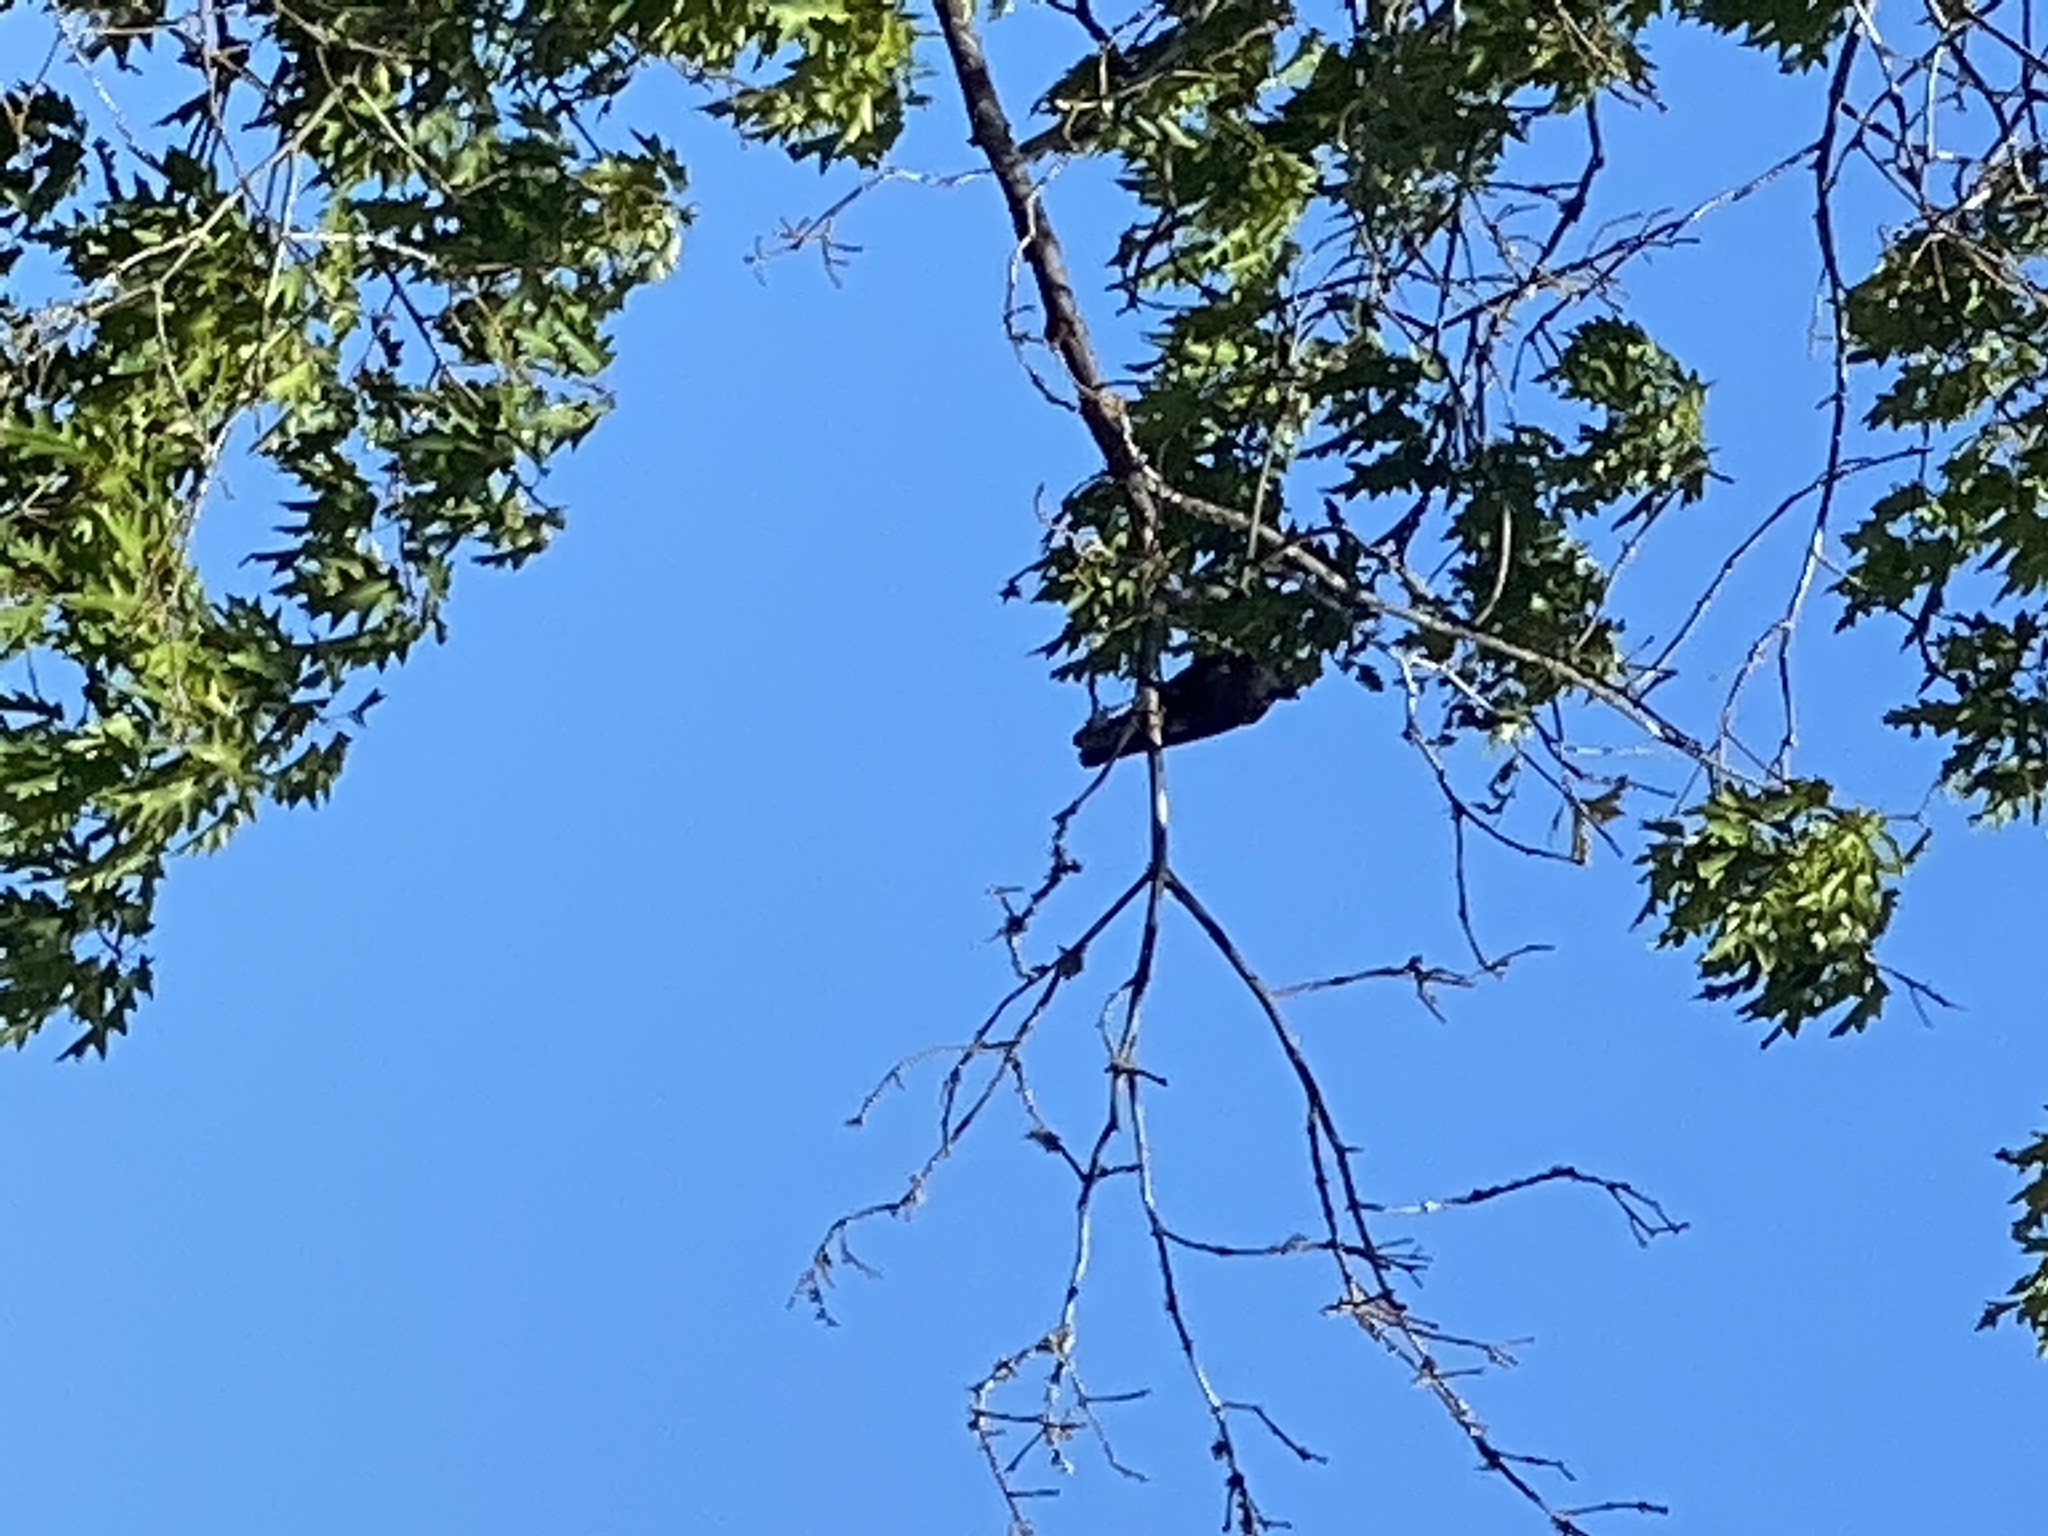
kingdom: Animalia
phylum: Chordata
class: Aves
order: Passeriformes
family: Corvidae
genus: Corvus
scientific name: Corvus brachyrhynchos
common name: American crow
